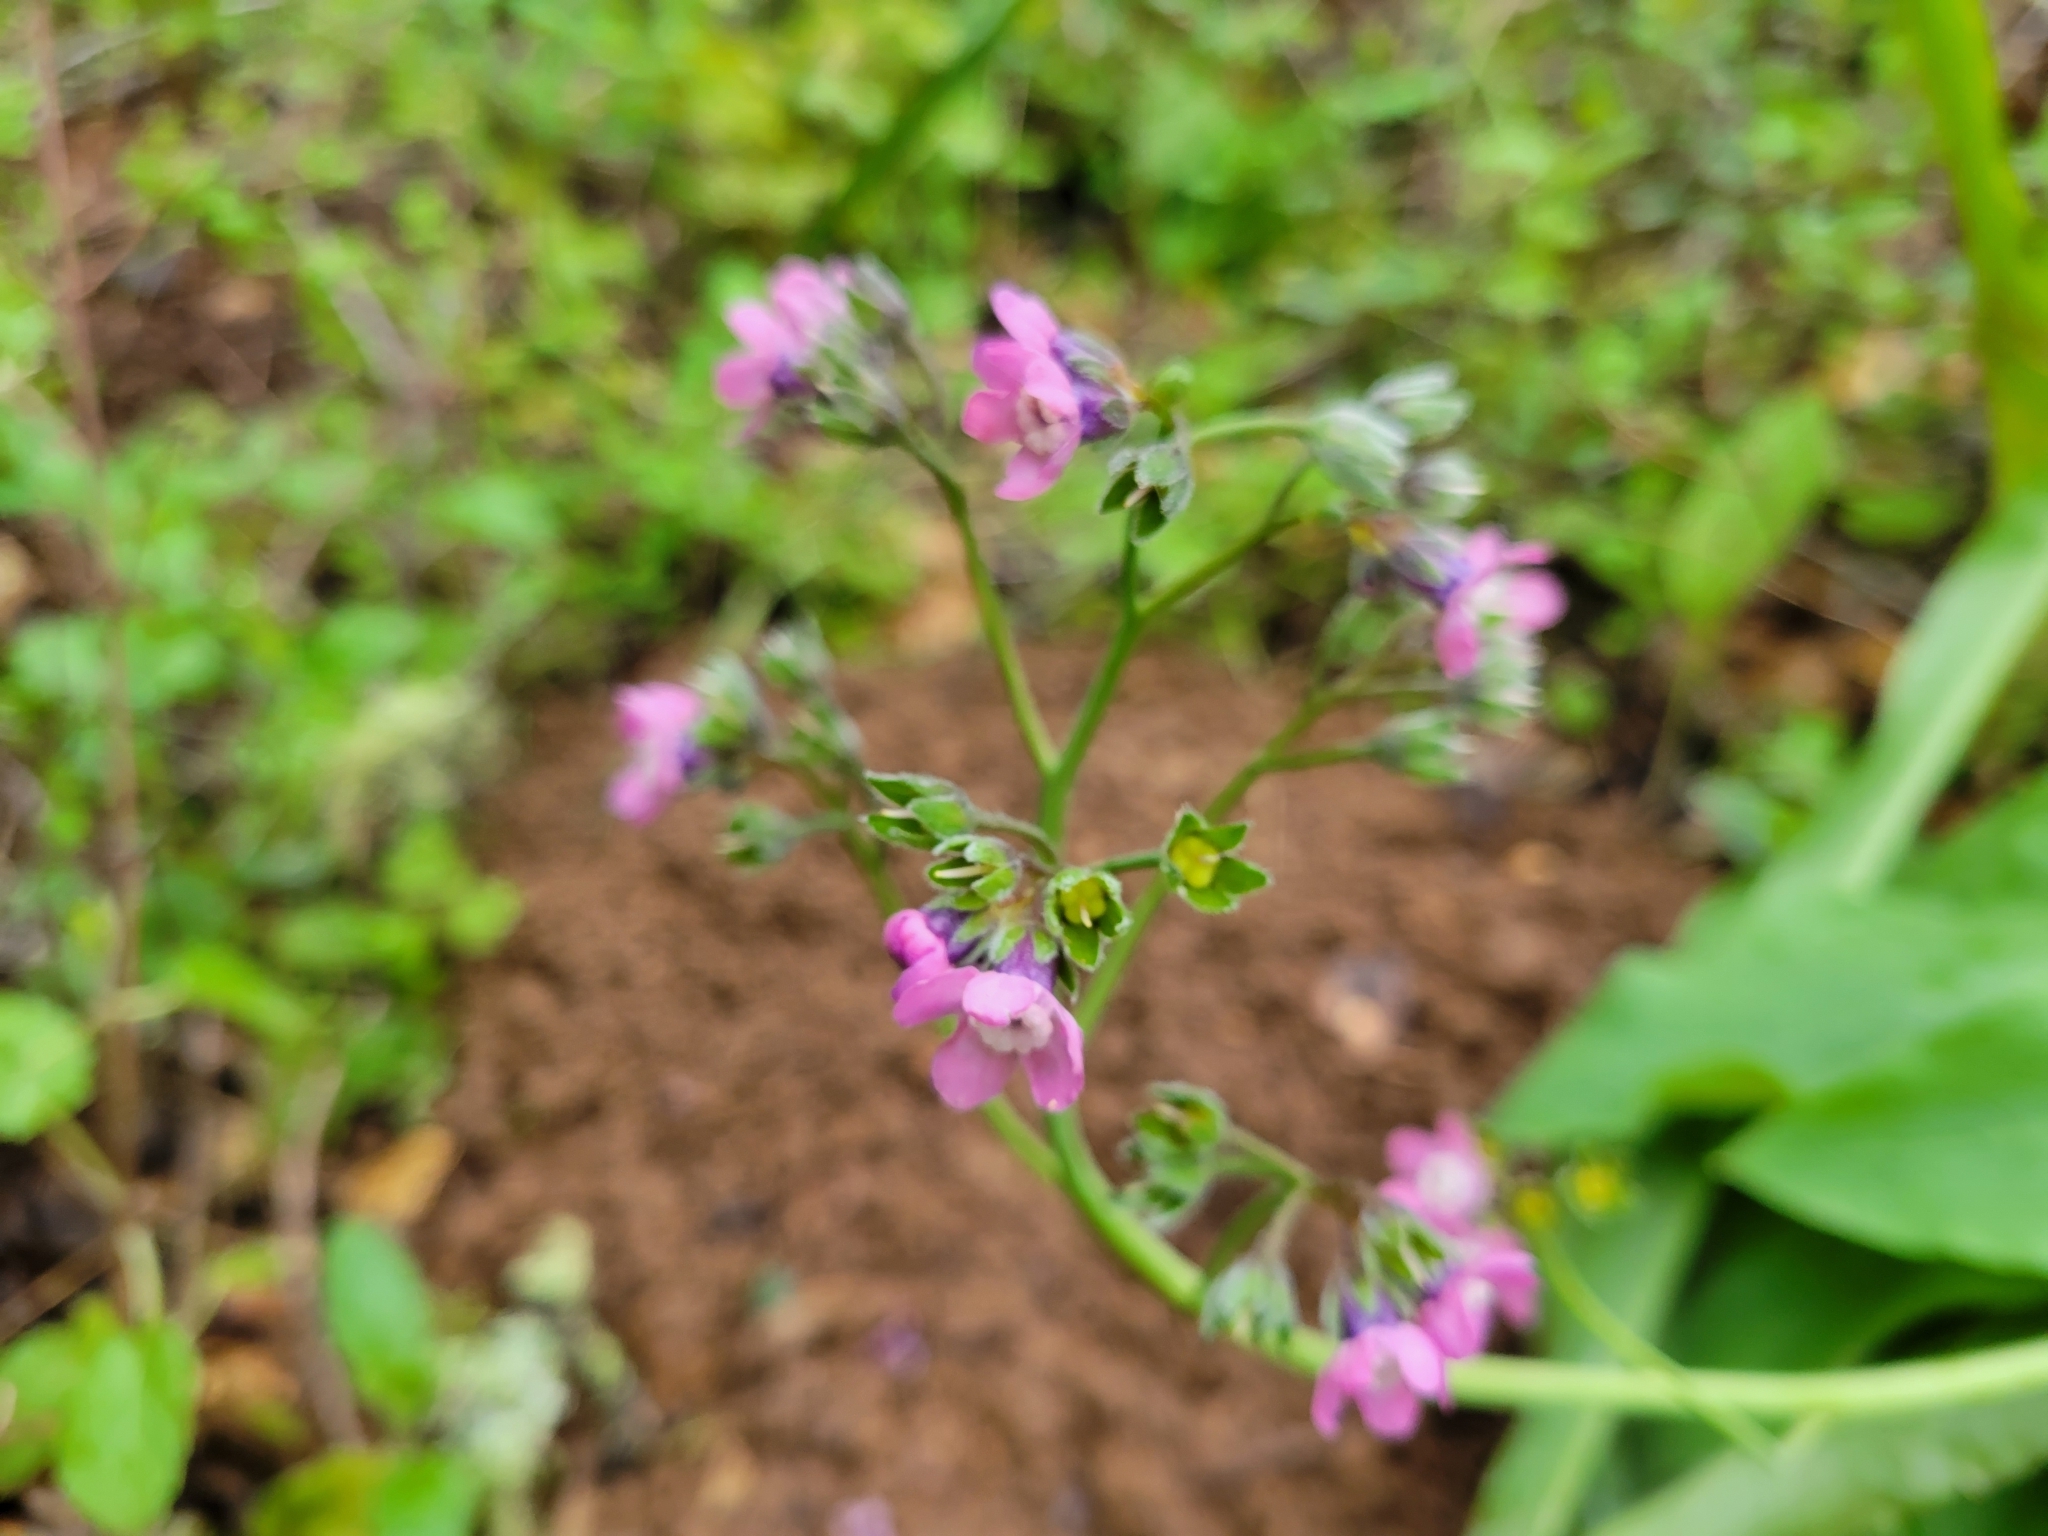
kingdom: Plantae
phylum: Tracheophyta
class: Magnoliopsida
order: Boraginales
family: Boraginaceae
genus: Adelinia
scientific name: Adelinia grande
